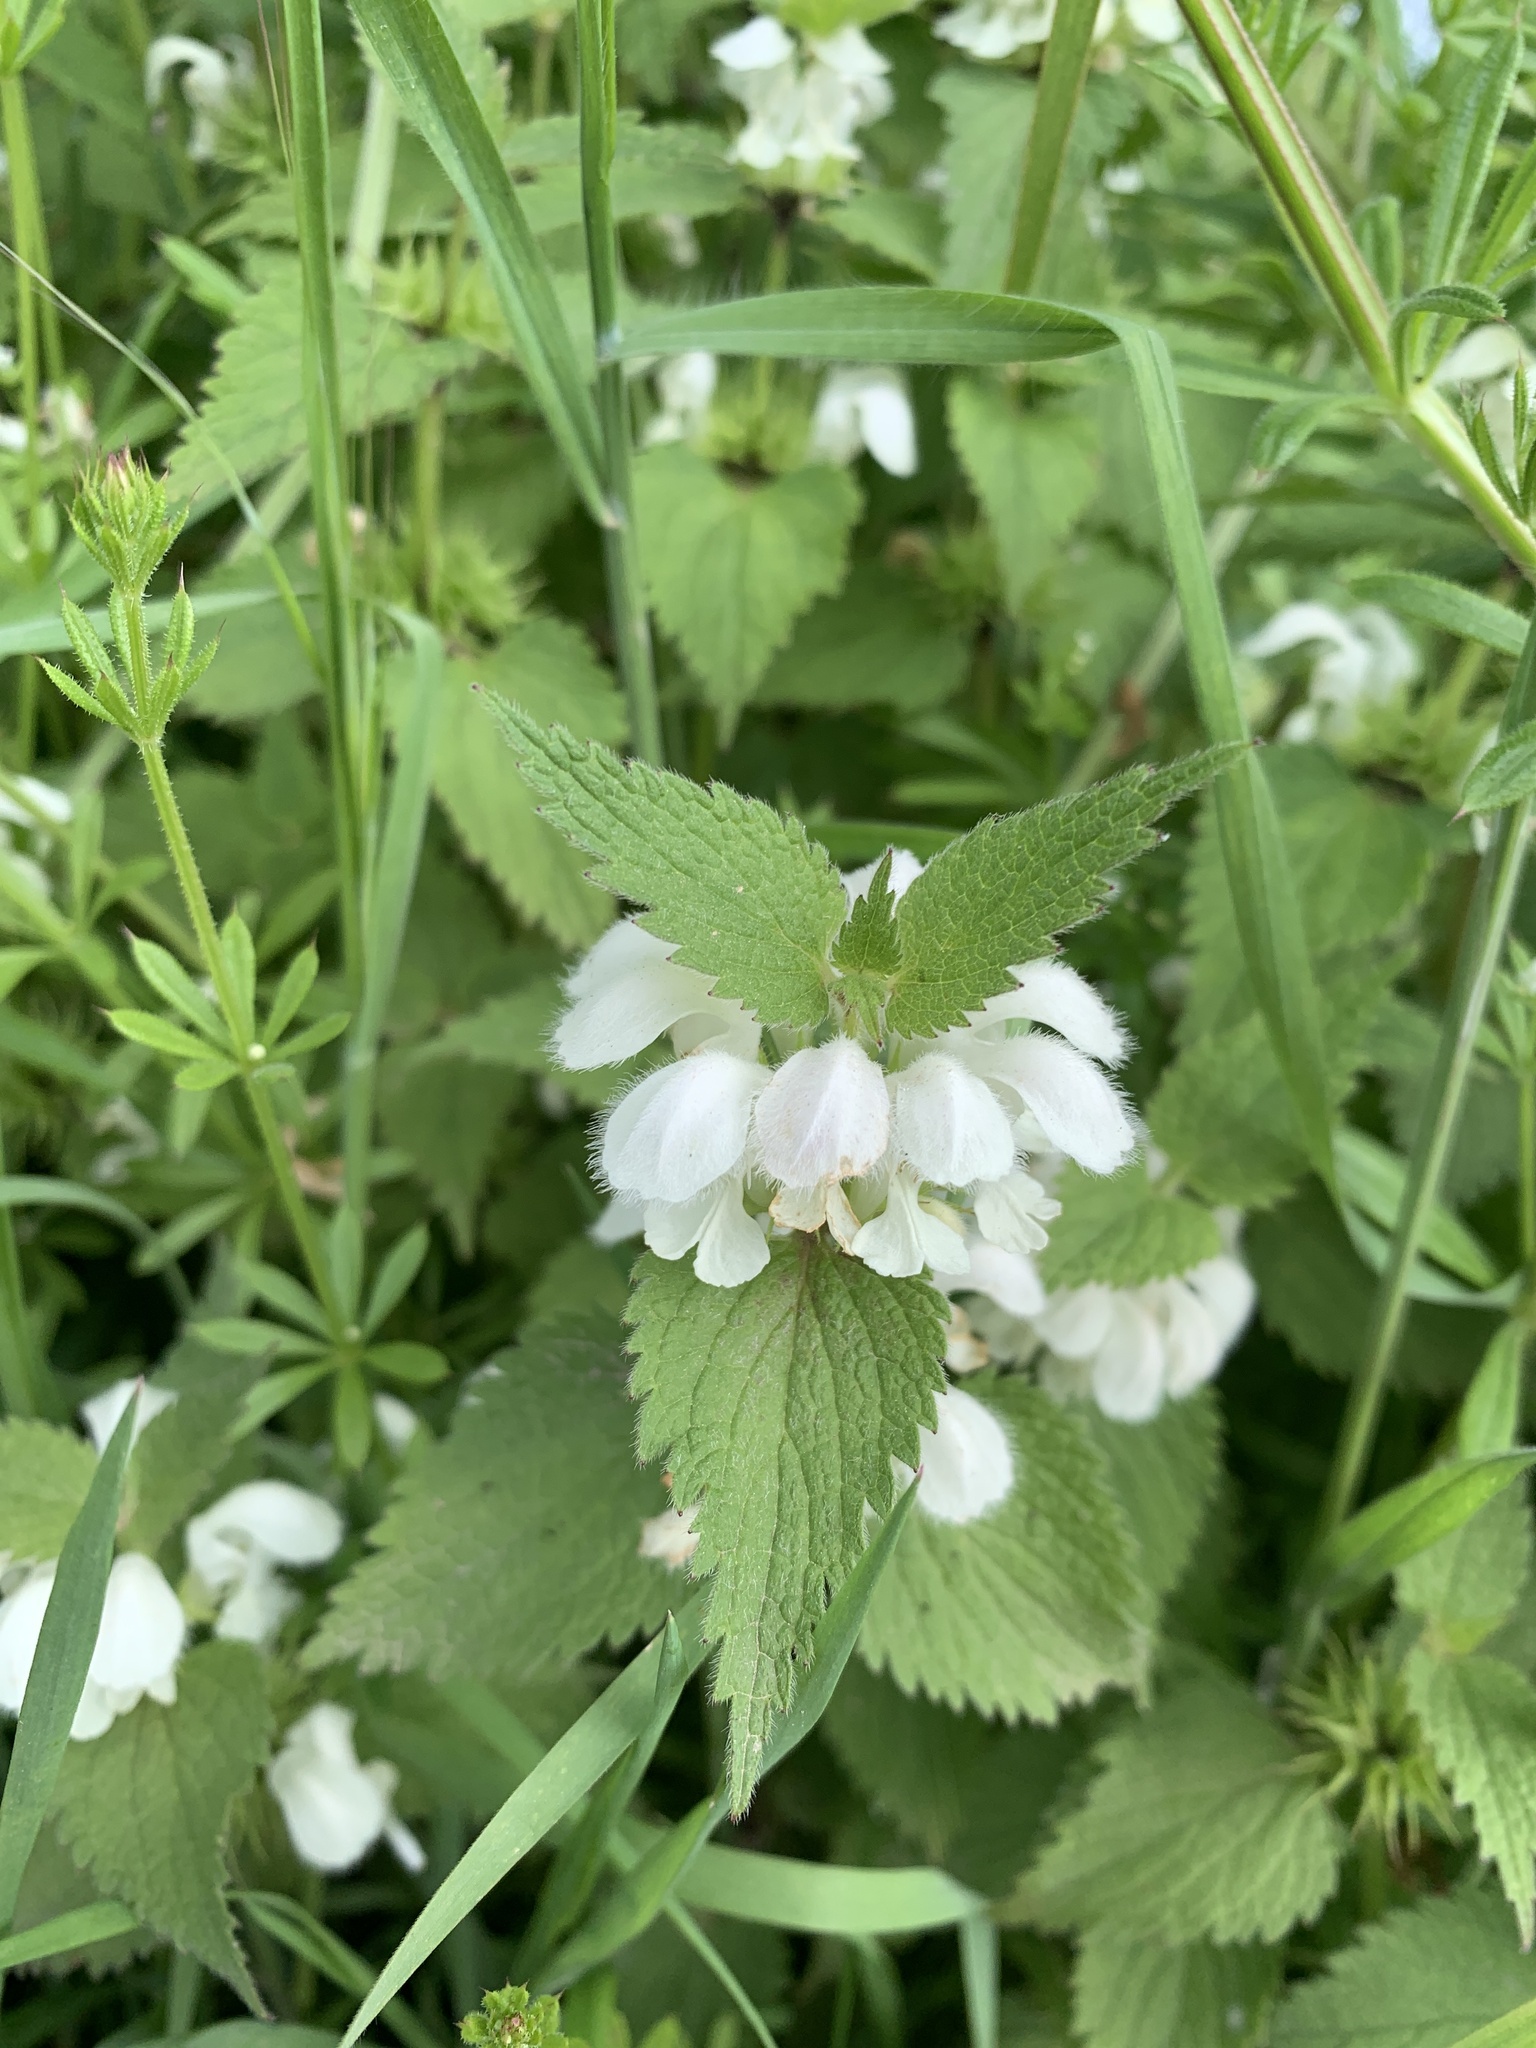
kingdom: Plantae
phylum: Tracheophyta
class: Magnoliopsida
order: Lamiales
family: Lamiaceae
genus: Lamium
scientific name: Lamium album
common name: White dead-nettle
